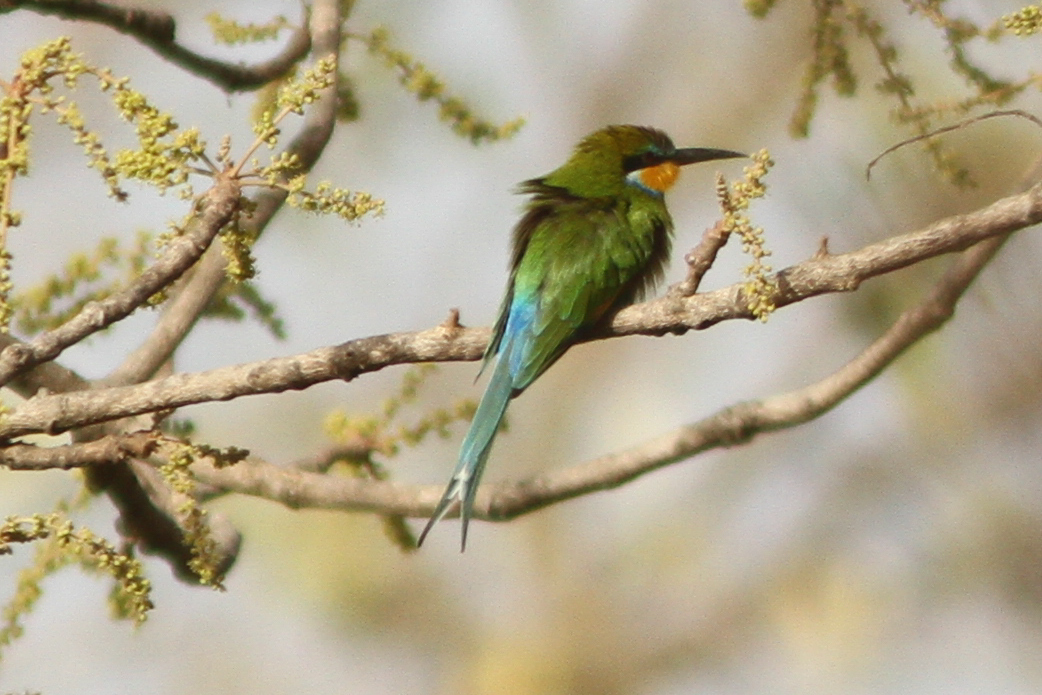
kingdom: Animalia
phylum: Chordata
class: Aves
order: Coraciiformes
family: Meropidae
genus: Merops
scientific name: Merops hirundineus
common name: Swallow-tailed bee-eater
